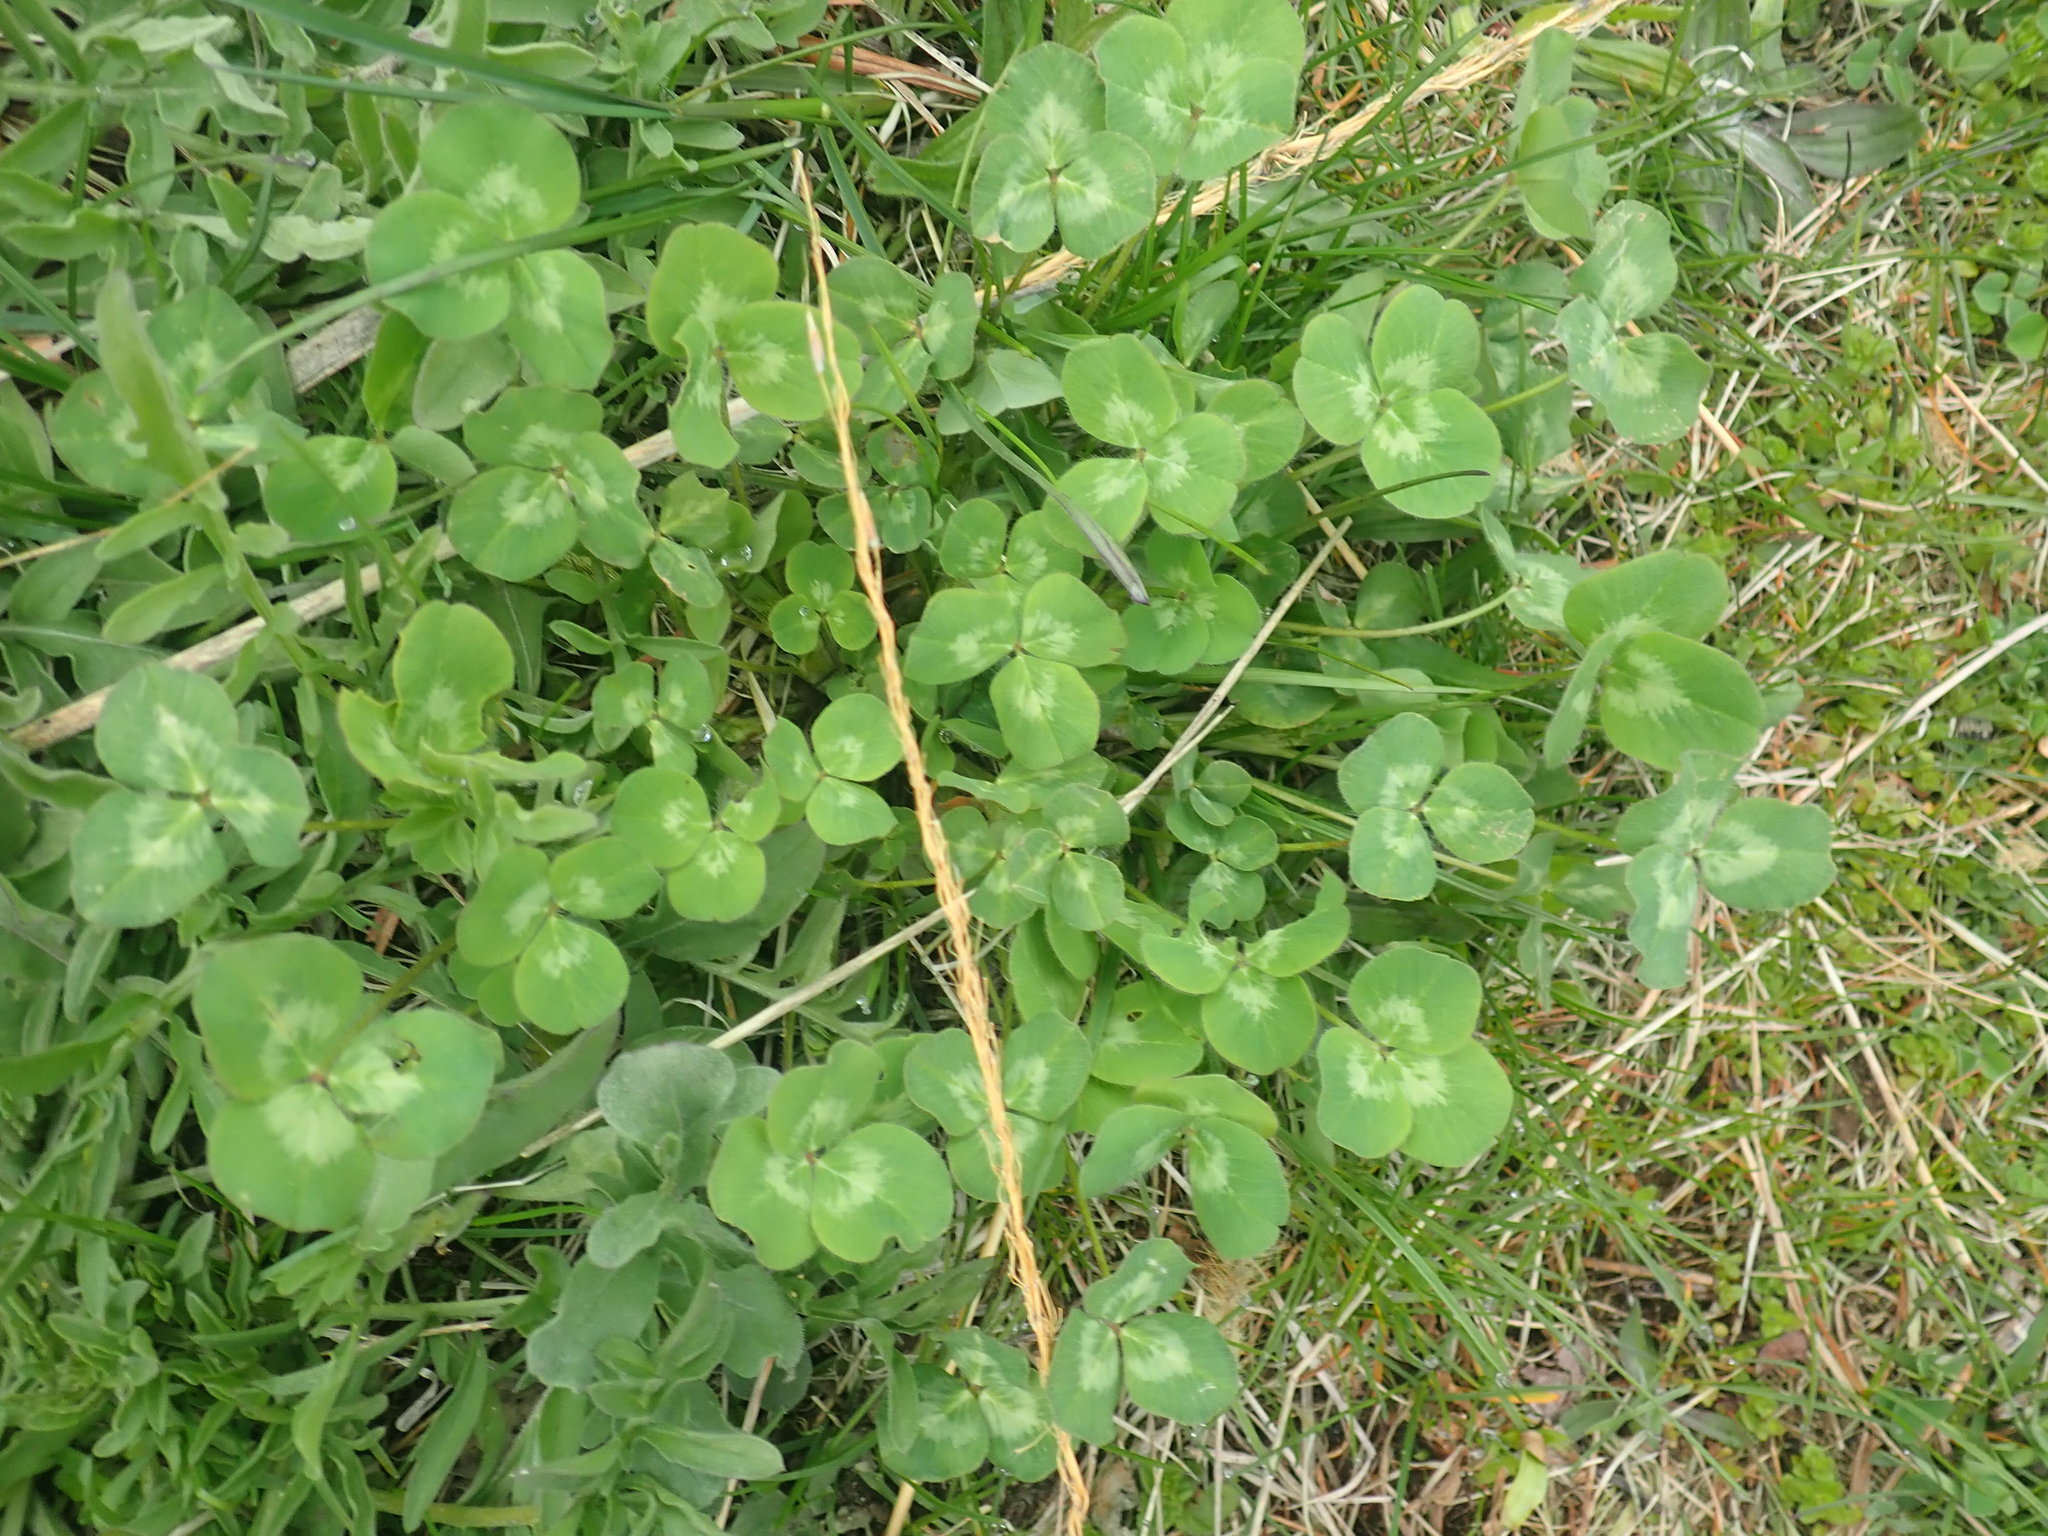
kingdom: Plantae
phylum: Tracheophyta
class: Magnoliopsida
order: Fabales
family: Fabaceae
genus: Trifolium
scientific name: Trifolium pratense
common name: Red clover
